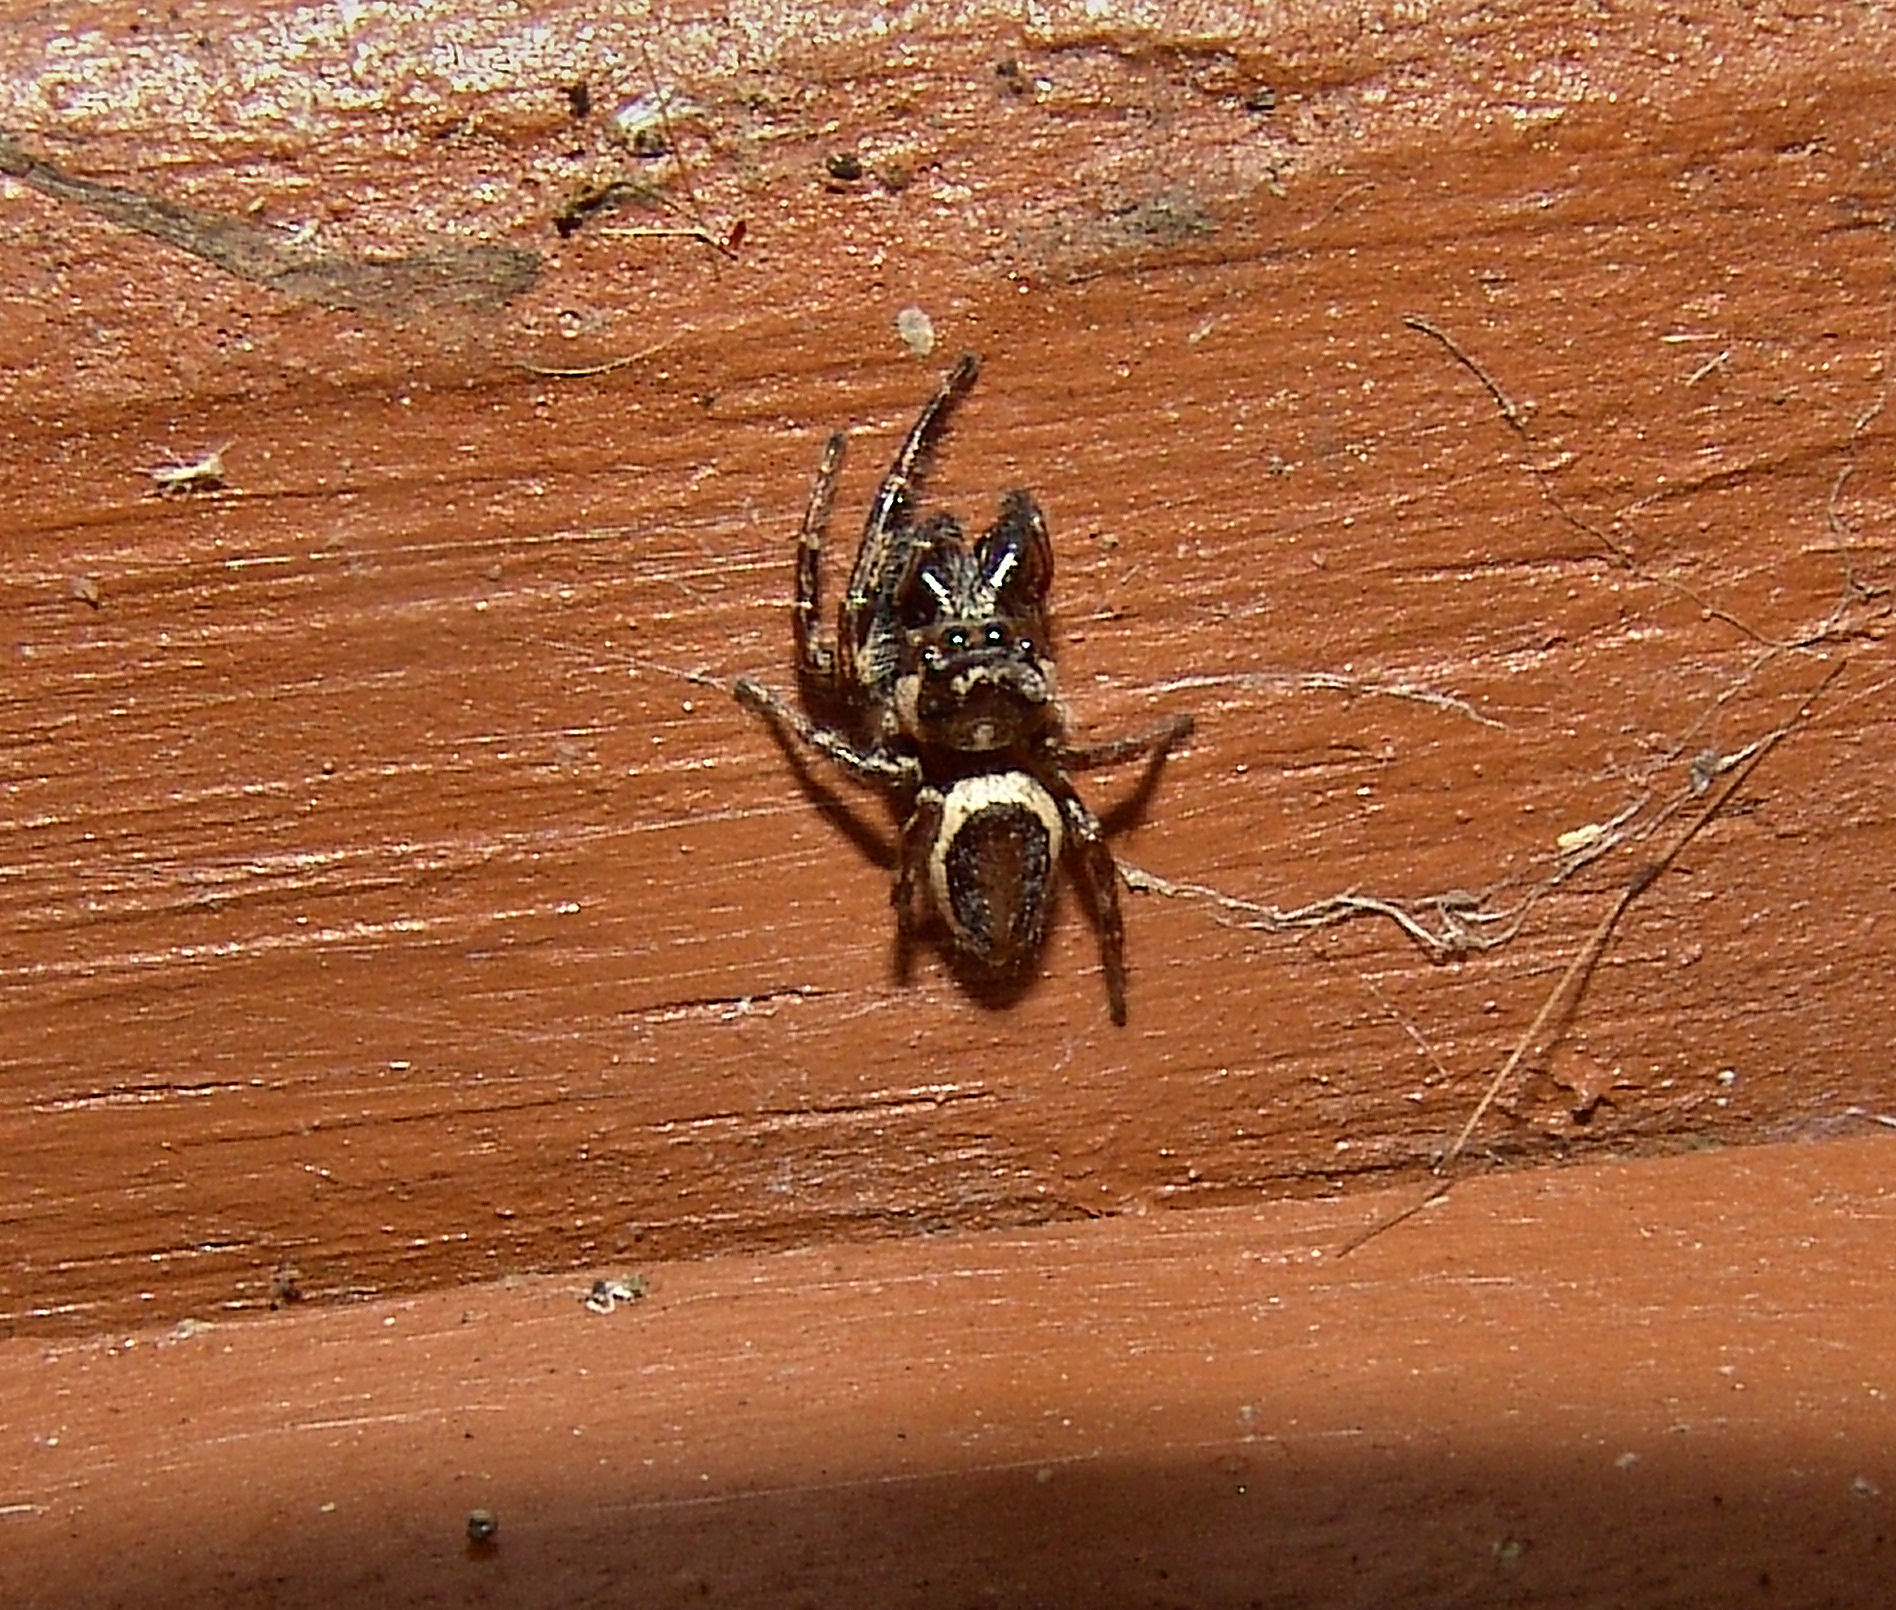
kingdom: Animalia
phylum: Arthropoda
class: Arachnida
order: Araneae
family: Salticidae
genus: Eris
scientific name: Eris militaris
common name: Bronze jumper
